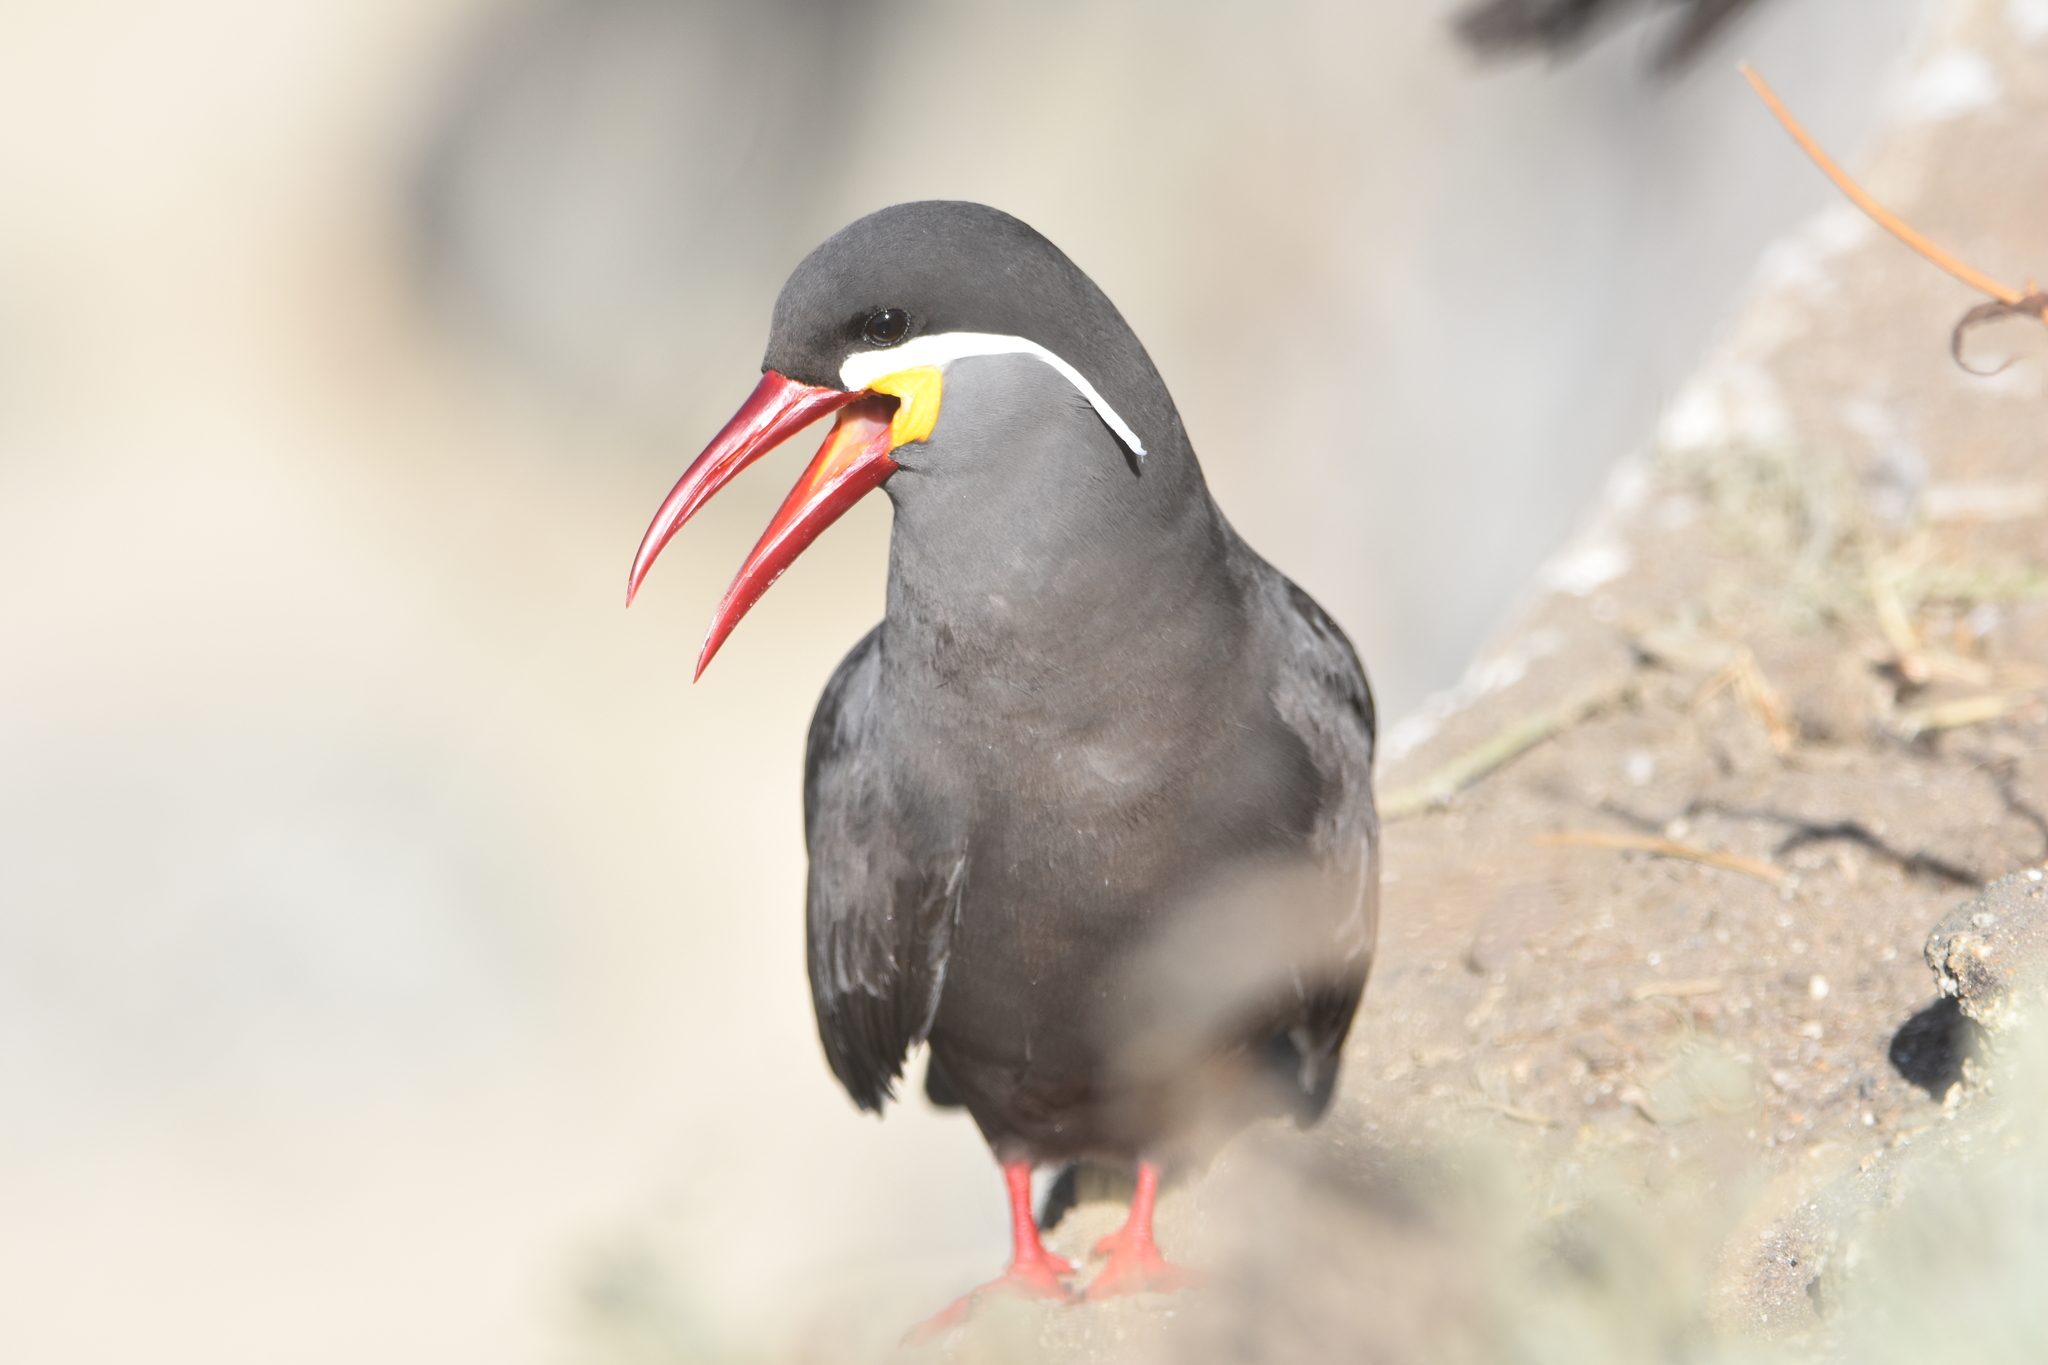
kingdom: Animalia
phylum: Chordata
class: Aves
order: Charadriiformes
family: Laridae
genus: Larosterna
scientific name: Larosterna inca
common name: Inca tern
